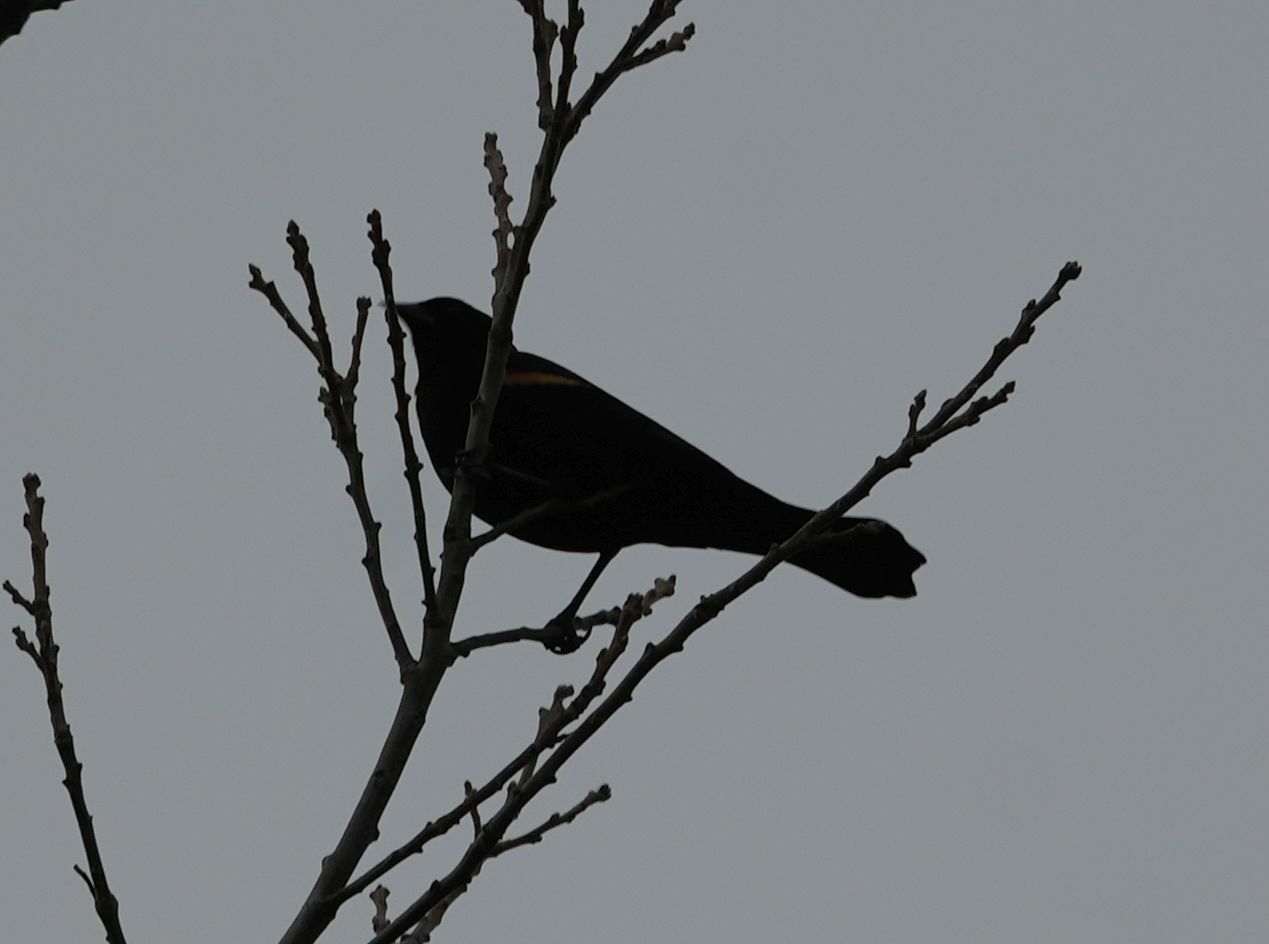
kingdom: Animalia
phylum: Chordata
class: Aves
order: Passeriformes
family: Icteridae
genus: Agelaius
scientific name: Agelaius phoeniceus
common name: Red-winged blackbird
